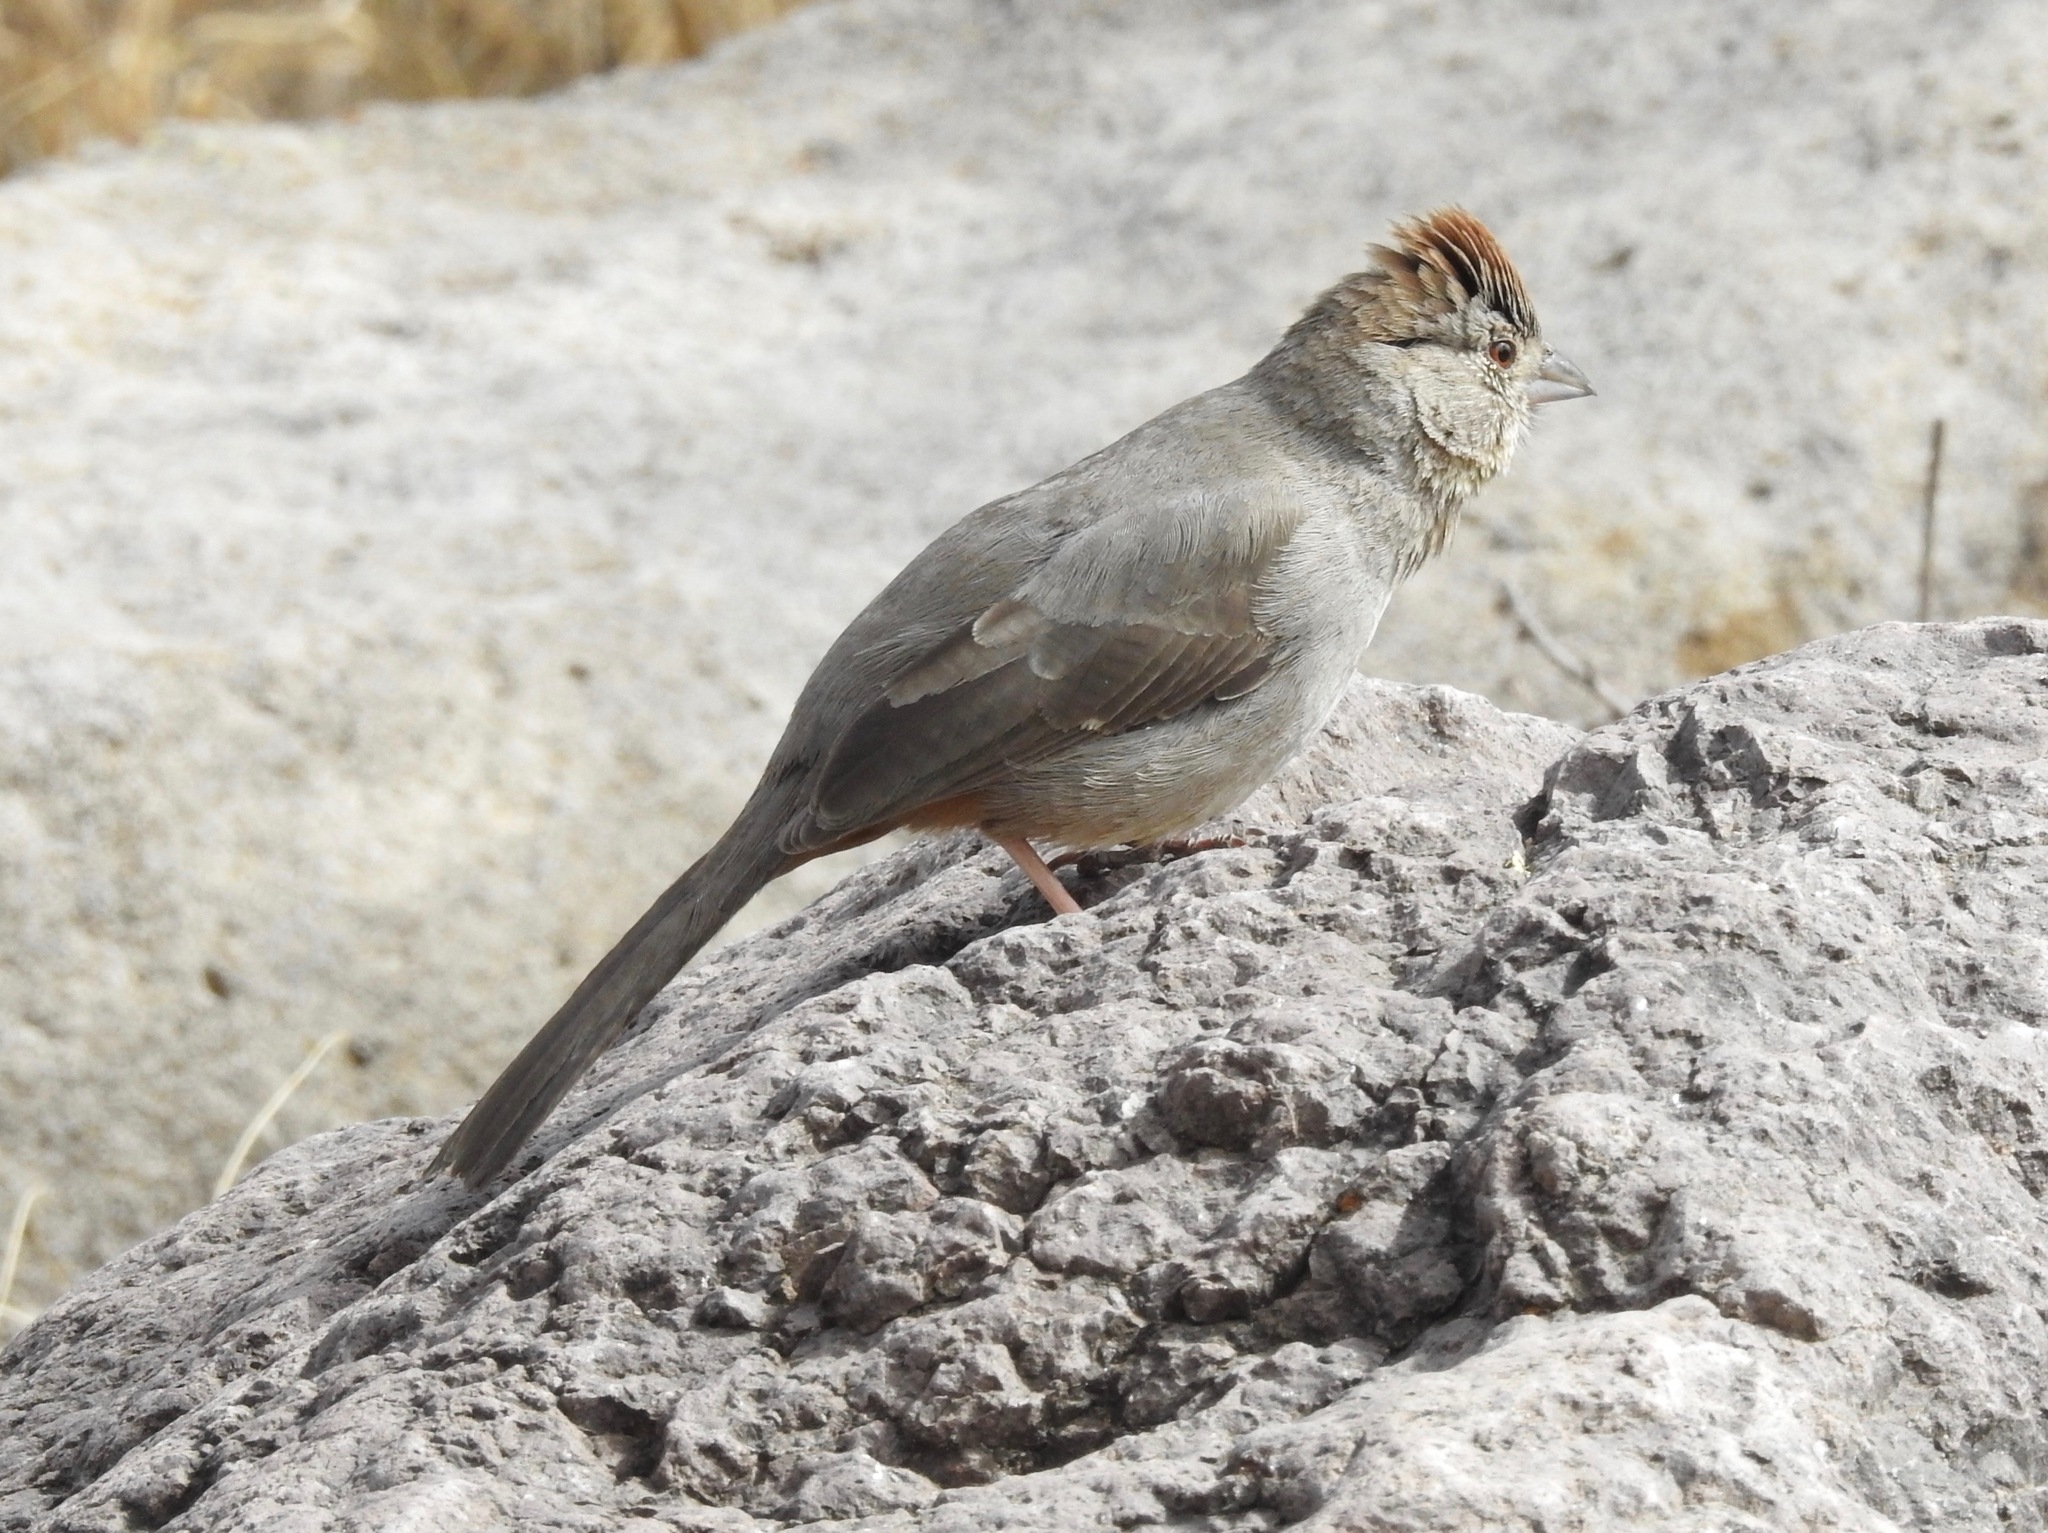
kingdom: Animalia
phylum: Chordata
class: Aves
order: Passeriformes
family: Passerellidae
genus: Melozone
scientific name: Melozone fusca
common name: Canyon towhee
